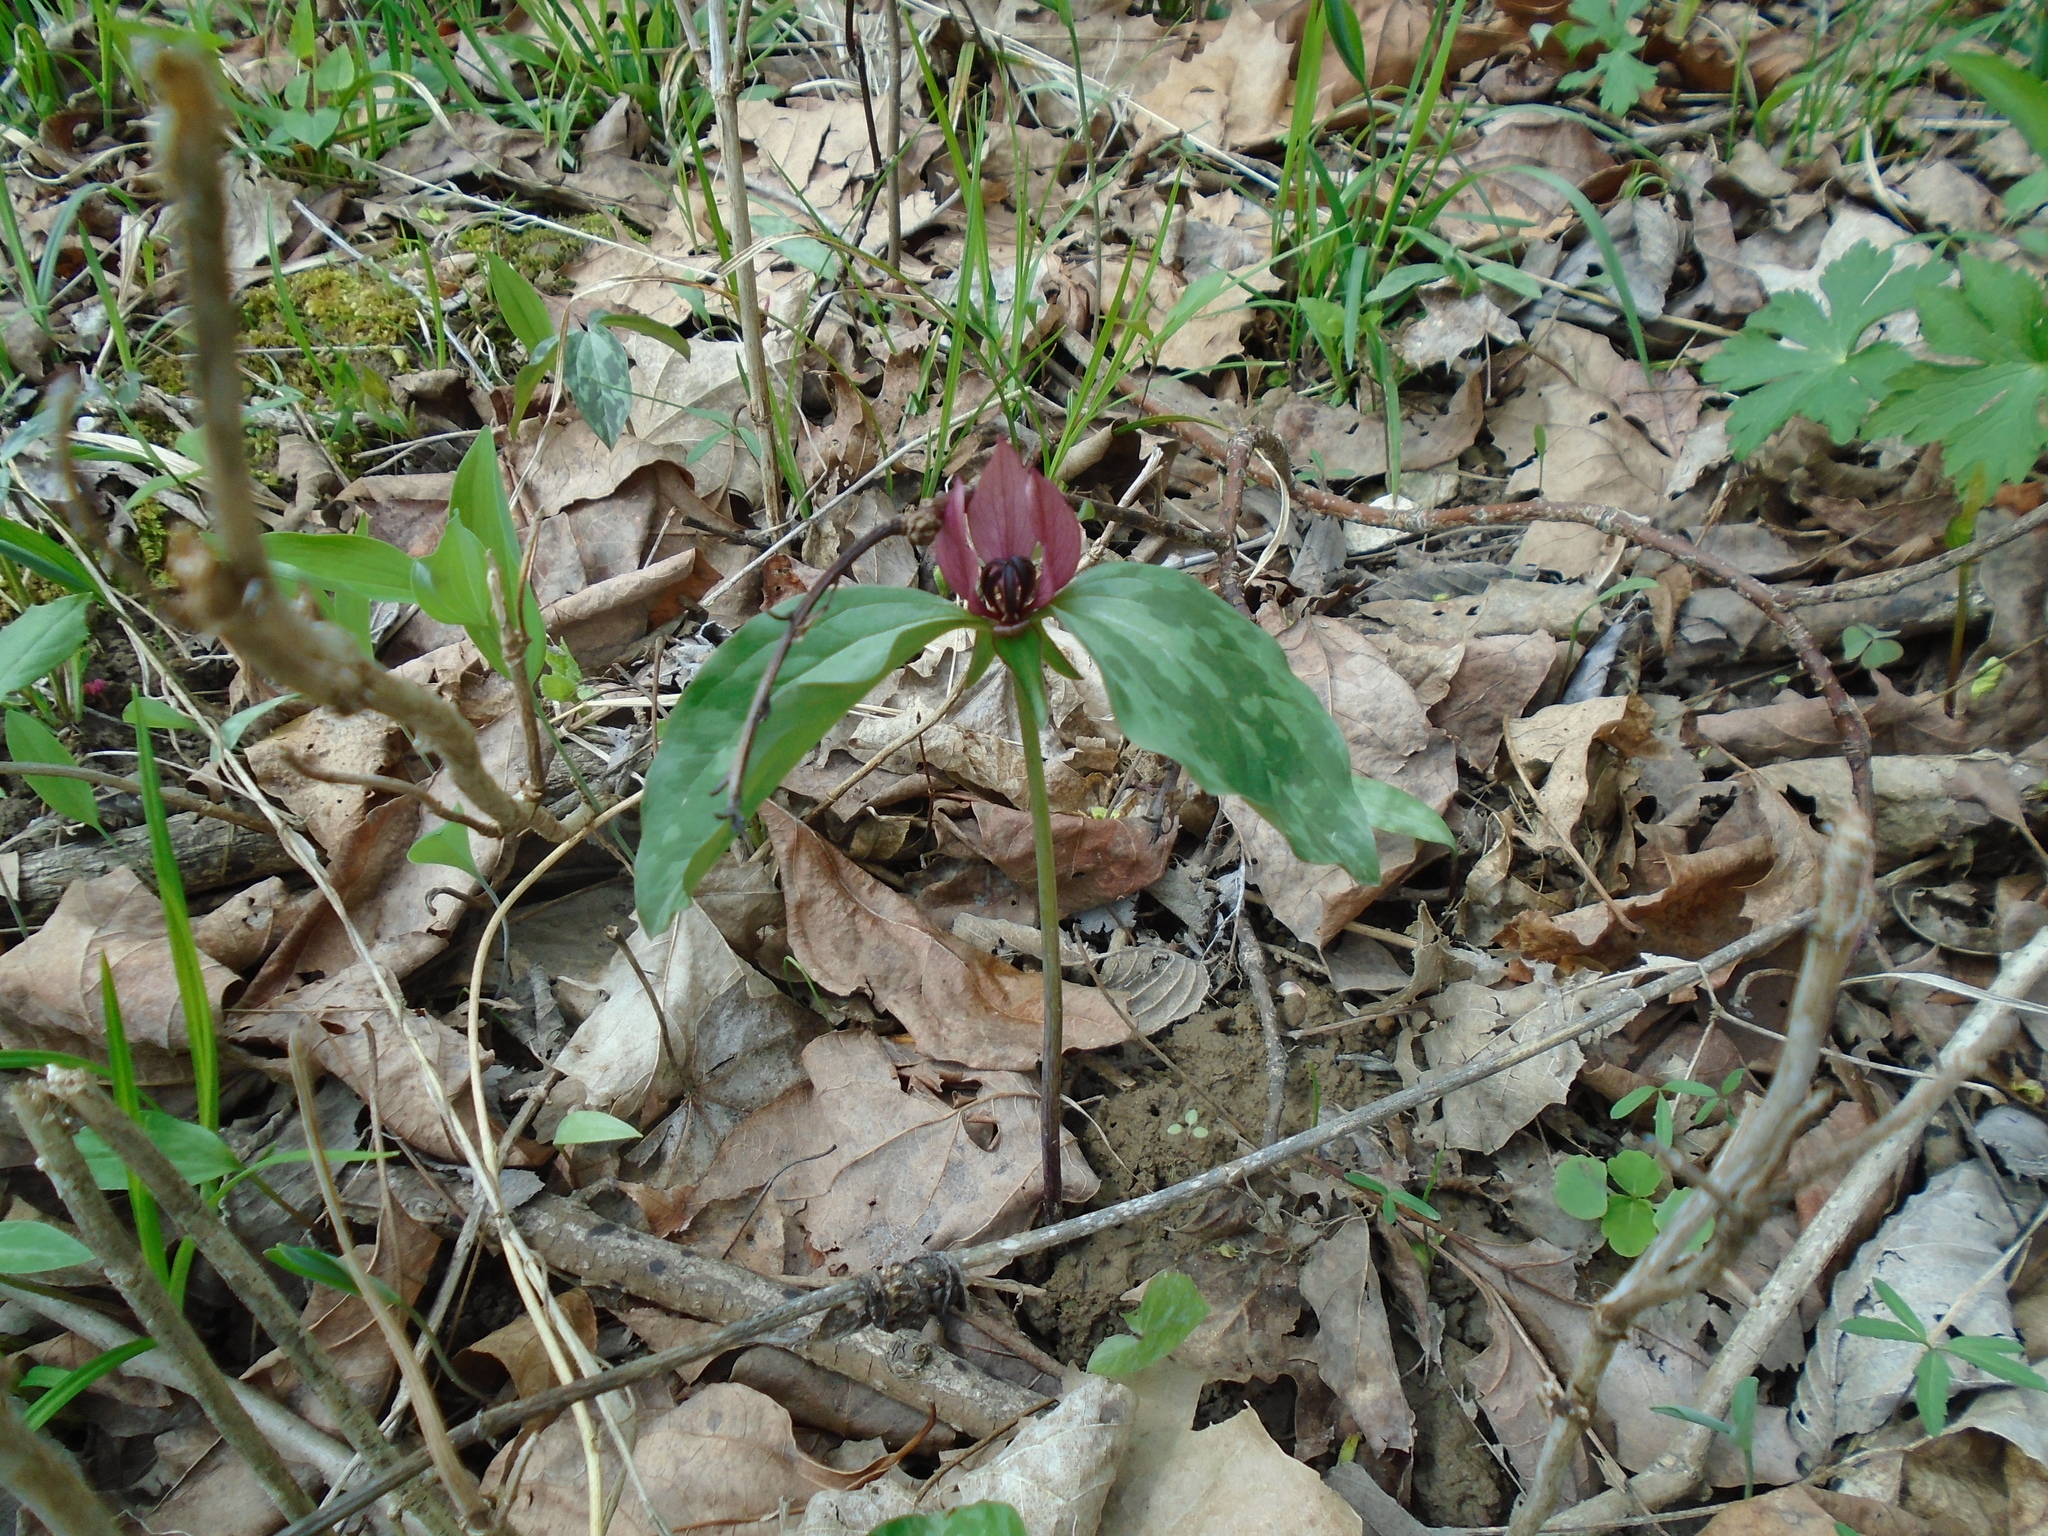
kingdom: Plantae
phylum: Tracheophyta
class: Liliopsida
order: Liliales
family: Melanthiaceae
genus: Trillium
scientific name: Trillium recurvatum
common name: Bloody butcher
